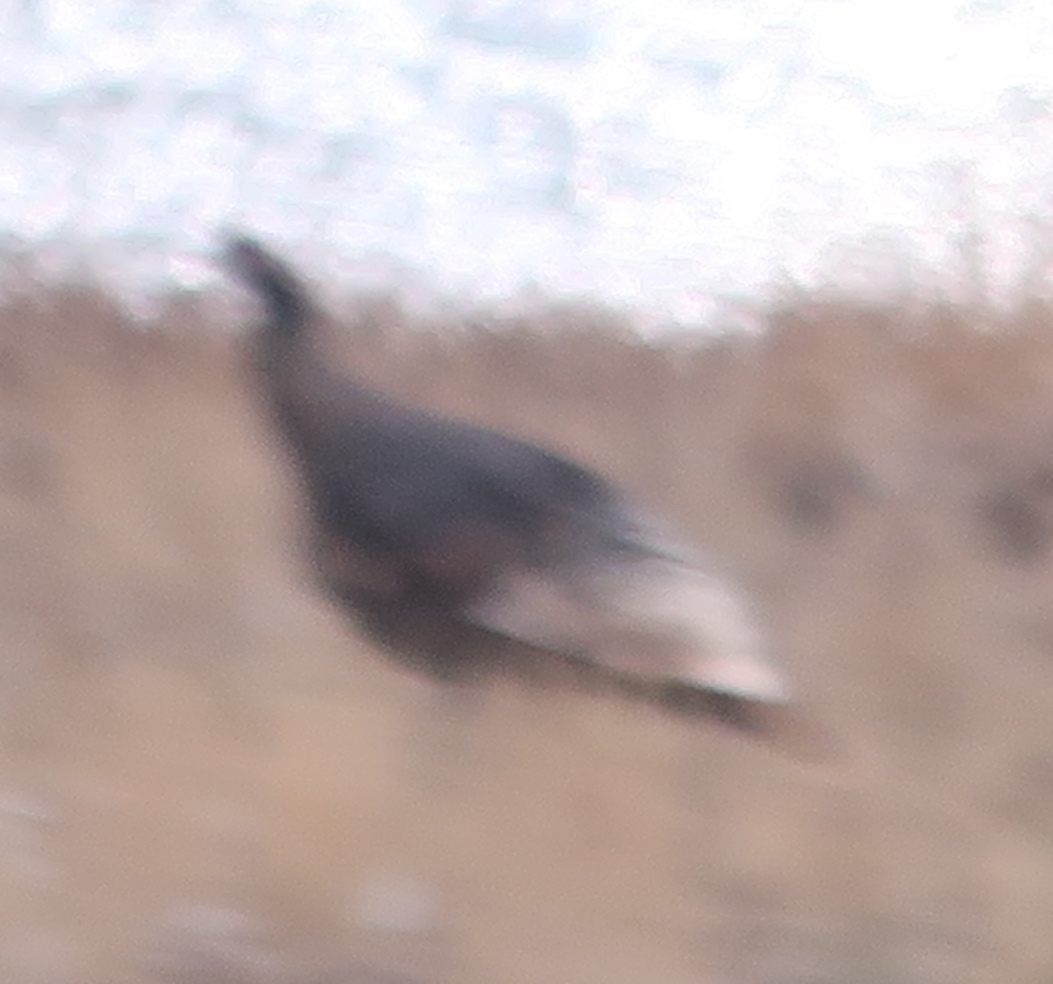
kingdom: Animalia
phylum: Chordata
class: Aves
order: Galliformes
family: Phasianidae
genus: Meleagris
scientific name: Meleagris gallopavo
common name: Wild turkey
